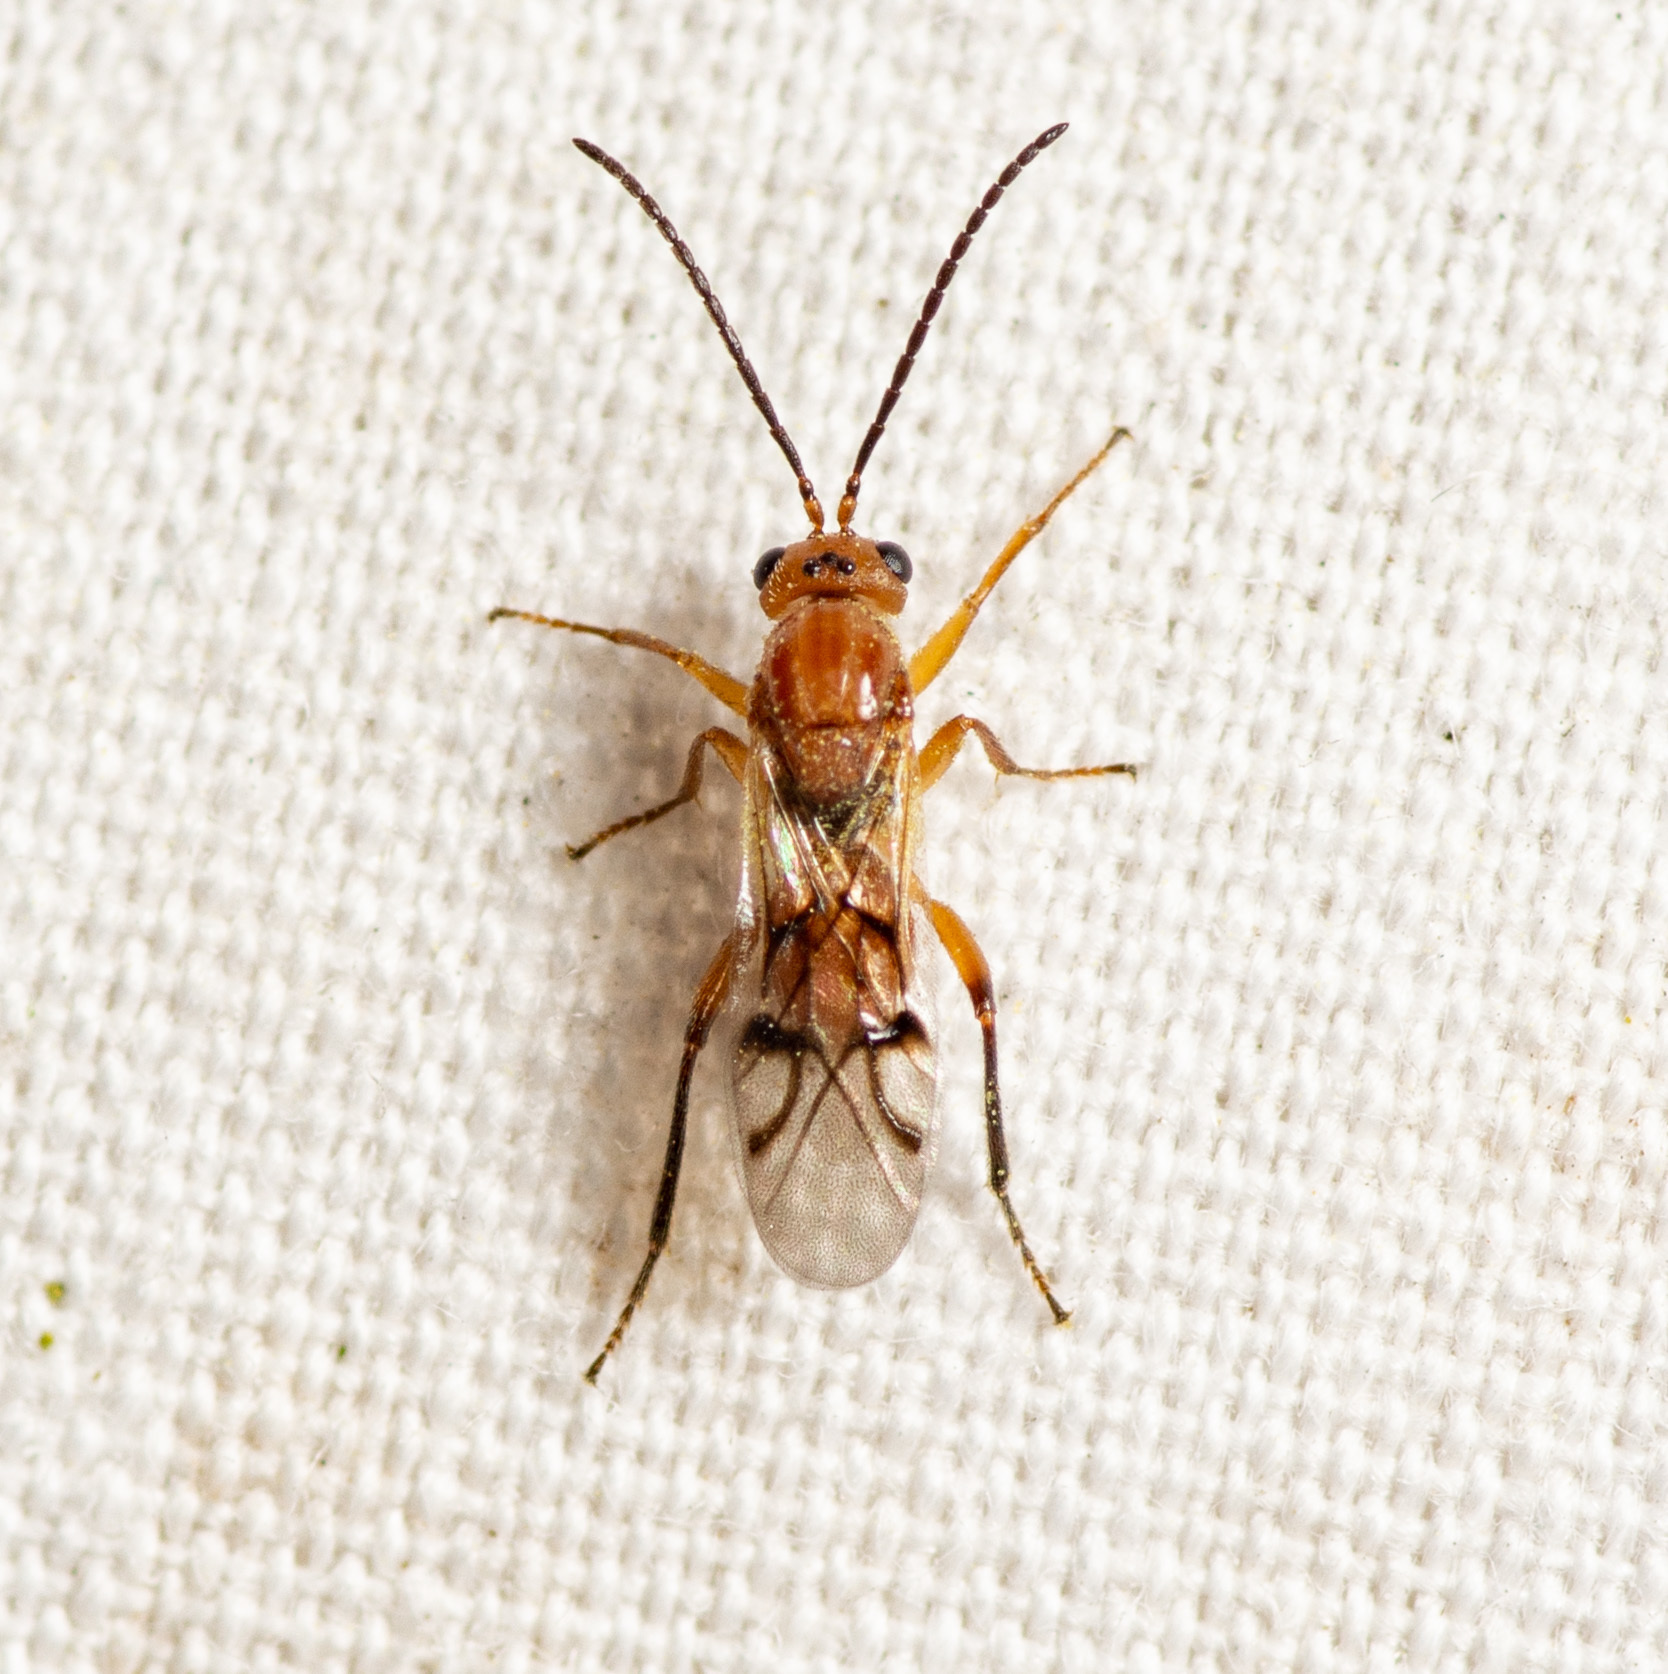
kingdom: Animalia
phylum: Arthropoda
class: Insecta
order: Hymenoptera
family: Cynipidae
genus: Belonocnema
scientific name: Belonocnema kinseyi
